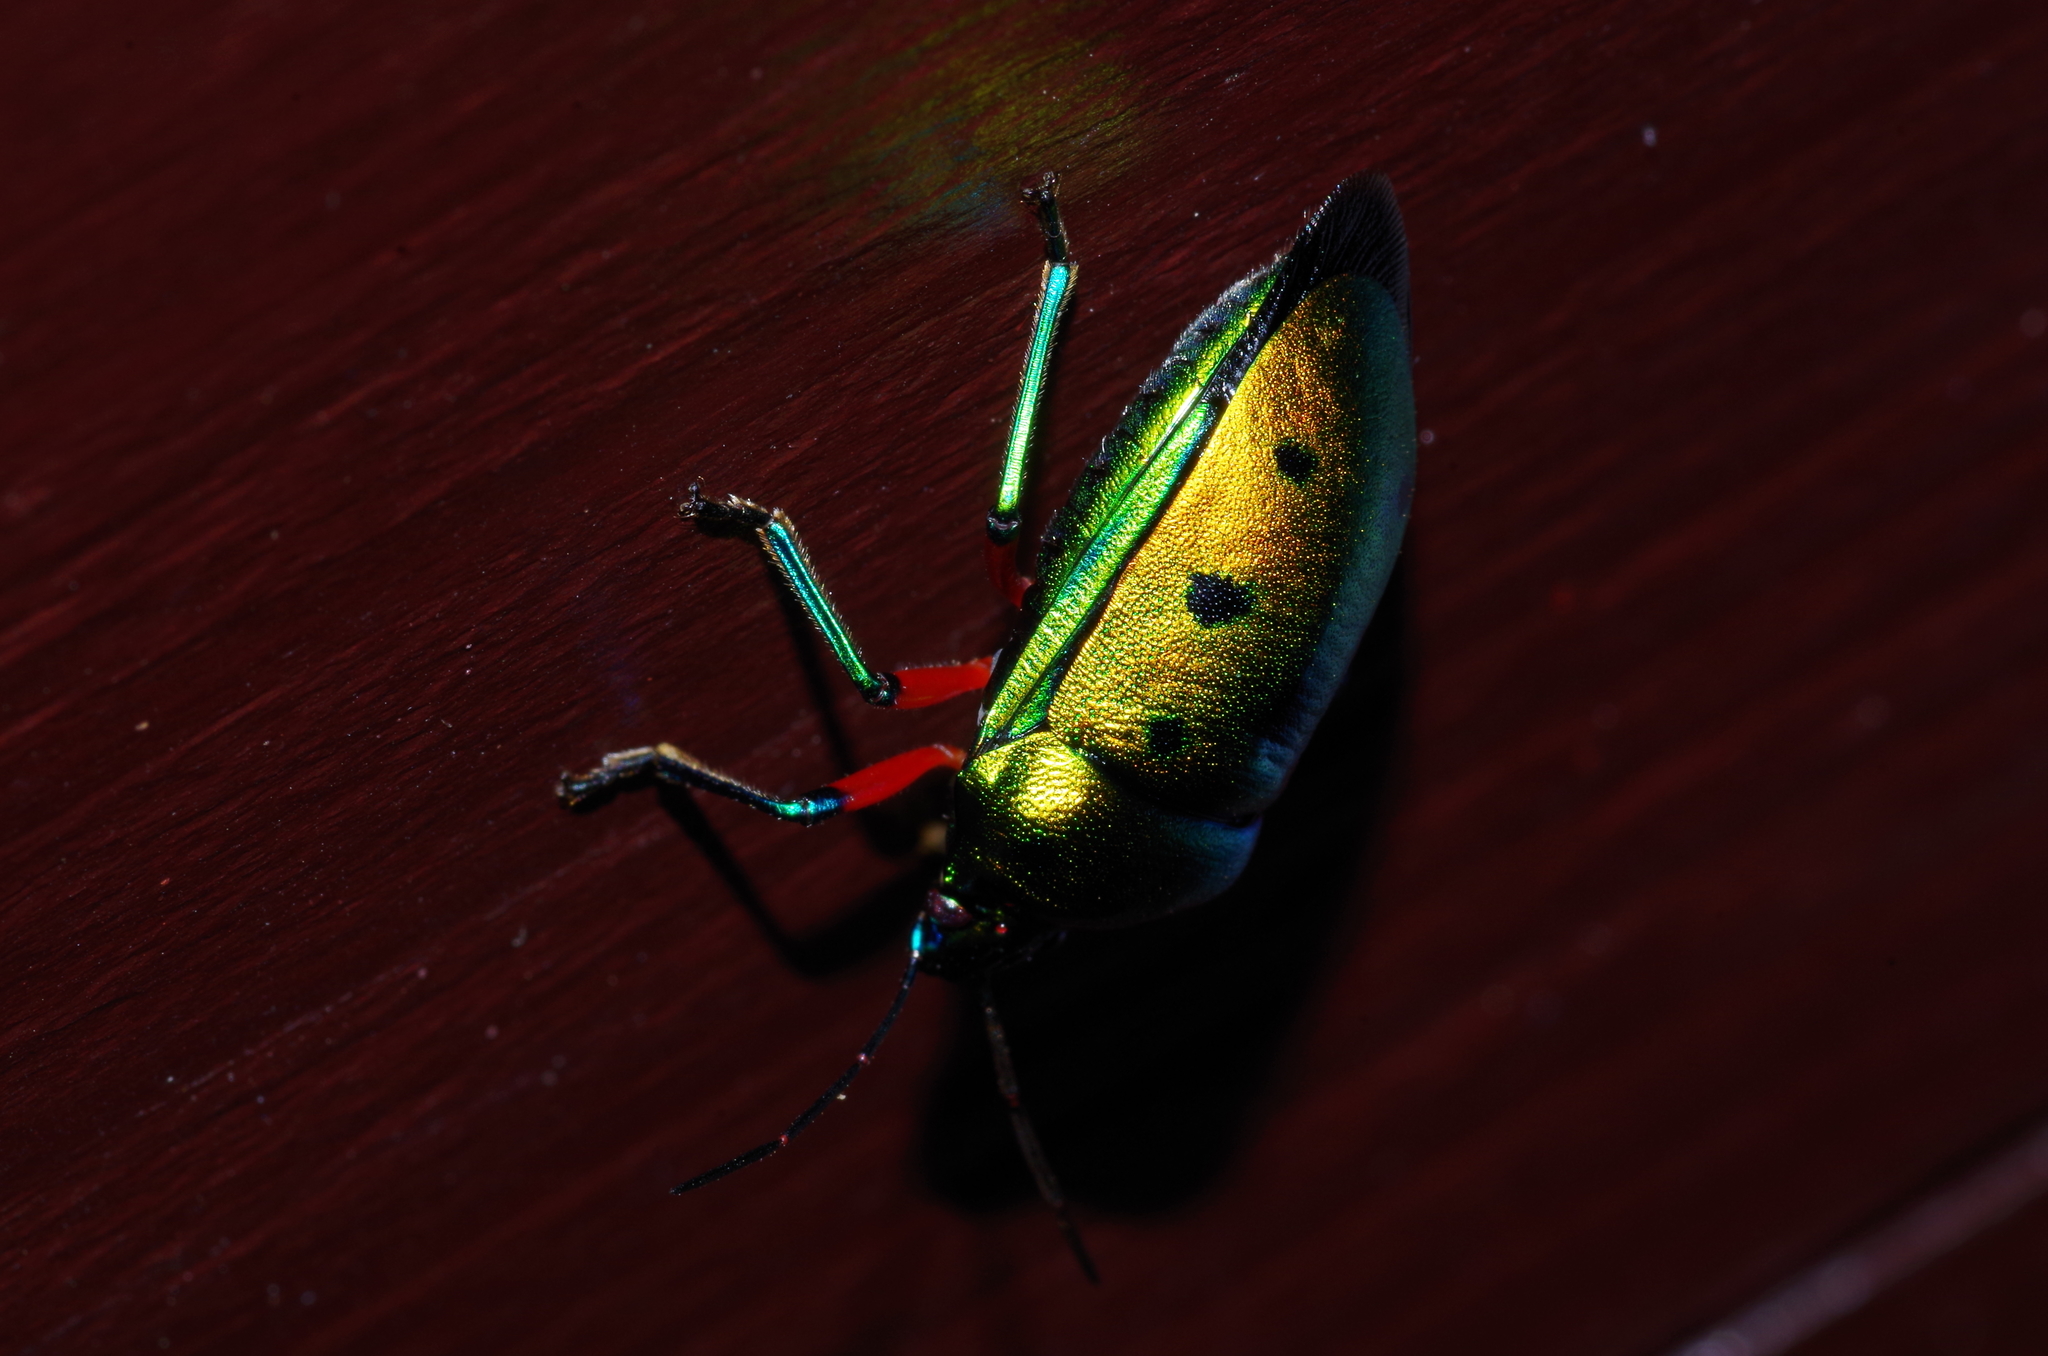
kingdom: Animalia
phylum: Arthropoda
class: Insecta
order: Hemiptera
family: Scutelleridae
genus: Calliphara
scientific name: Calliphara excellens
